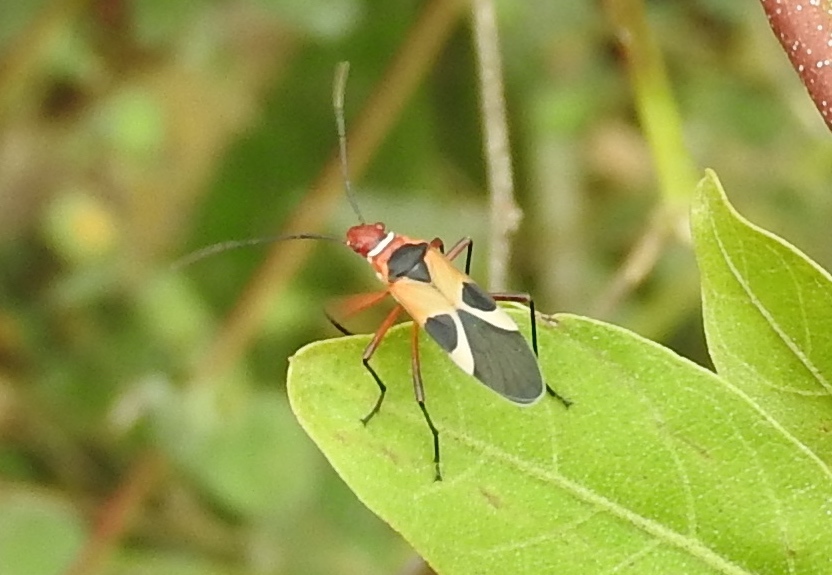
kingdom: Animalia
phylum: Arthropoda
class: Insecta
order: Hemiptera
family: Pyrrhocoridae
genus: Dysdercus
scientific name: Dysdercus mimus
